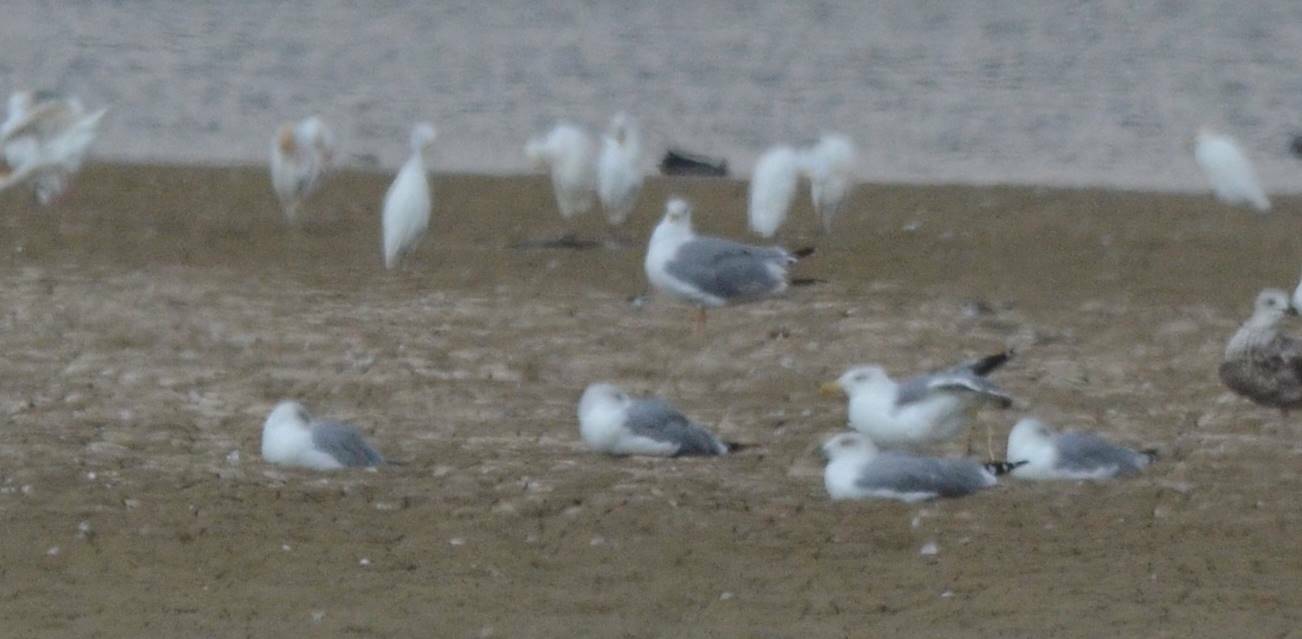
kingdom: Animalia
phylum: Chordata
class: Aves
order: Charadriiformes
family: Laridae
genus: Larus
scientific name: Larus michahellis
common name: Yellow-legged gull
